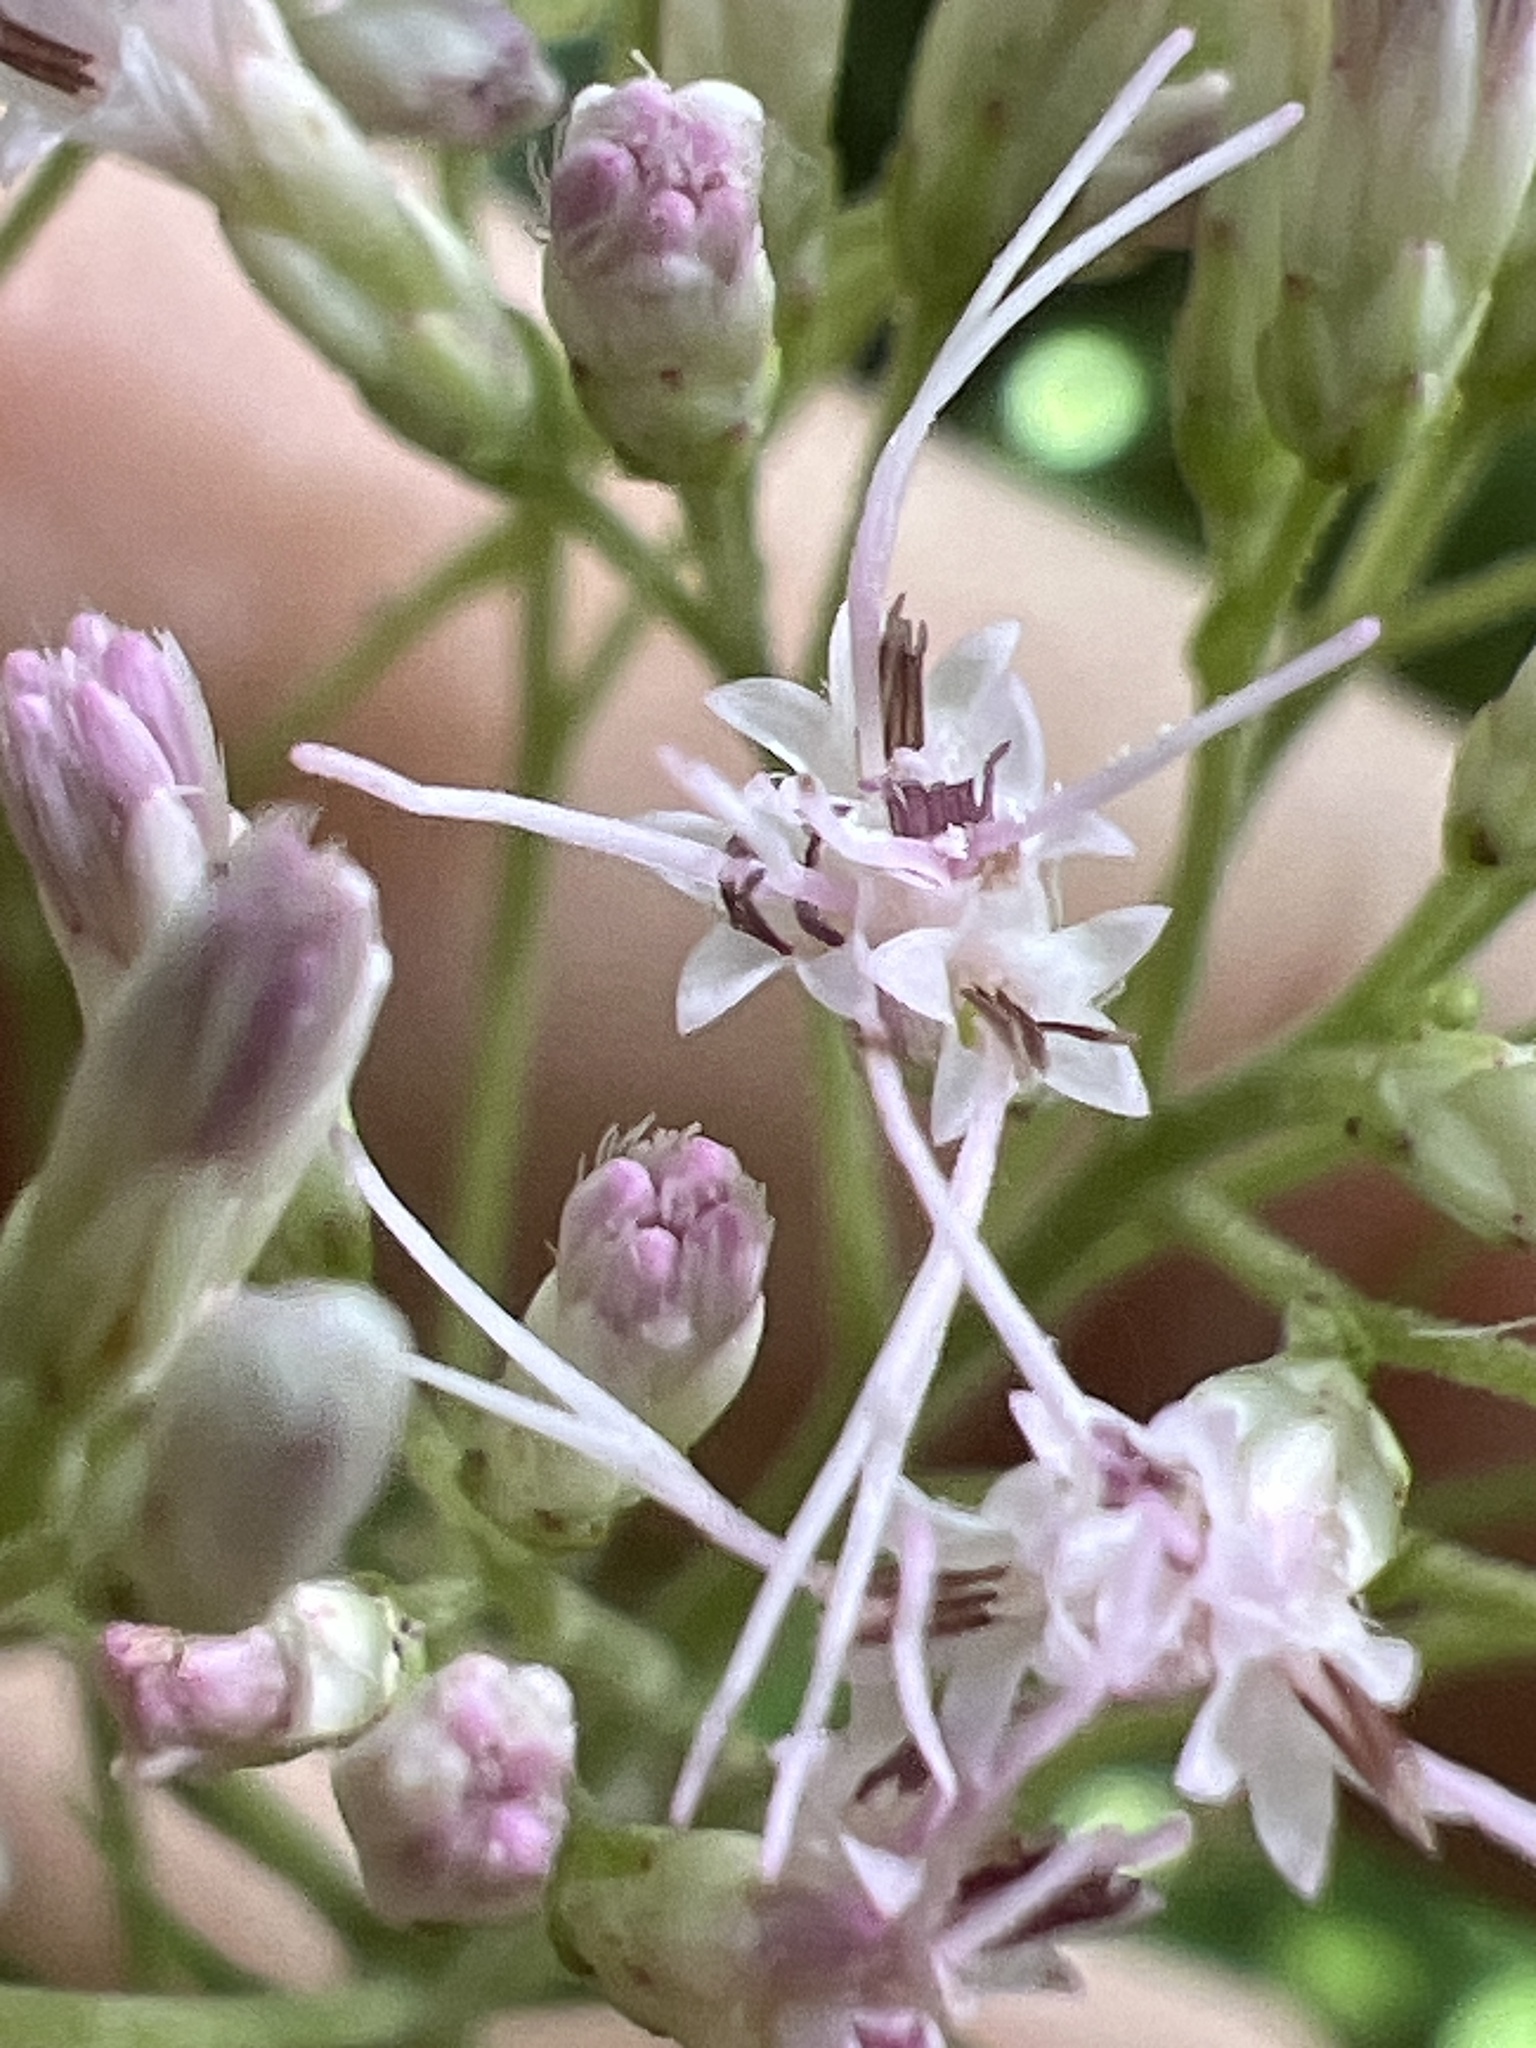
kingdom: Plantae
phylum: Tracheophyta
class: Magnoliopsida
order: Asterales
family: Asteraceae
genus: Eutrochium
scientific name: Eutrochium purpureum
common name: Gravelroot
